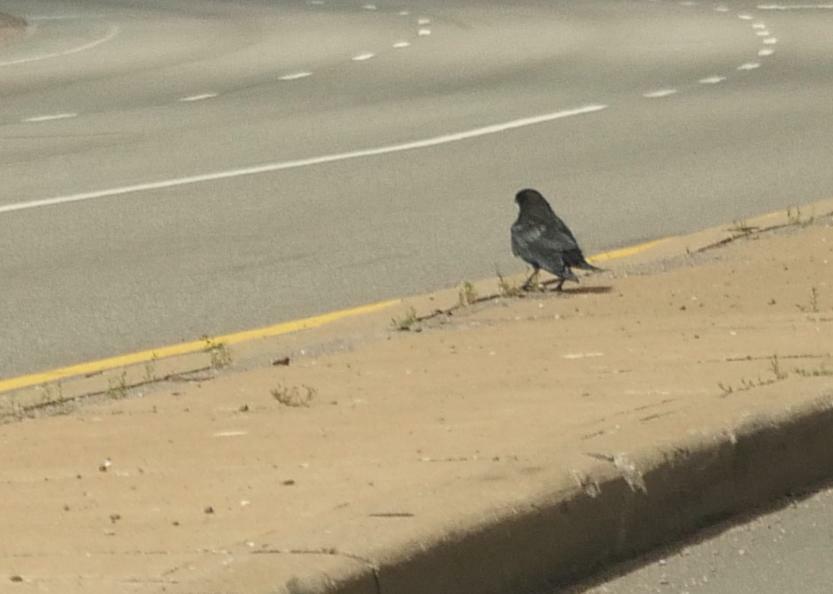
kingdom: Animalia
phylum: Chordata
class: Aves
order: Passeriformes
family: Corvidae
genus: Corvus
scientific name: Corvus brachyrhynchos
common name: American crow
